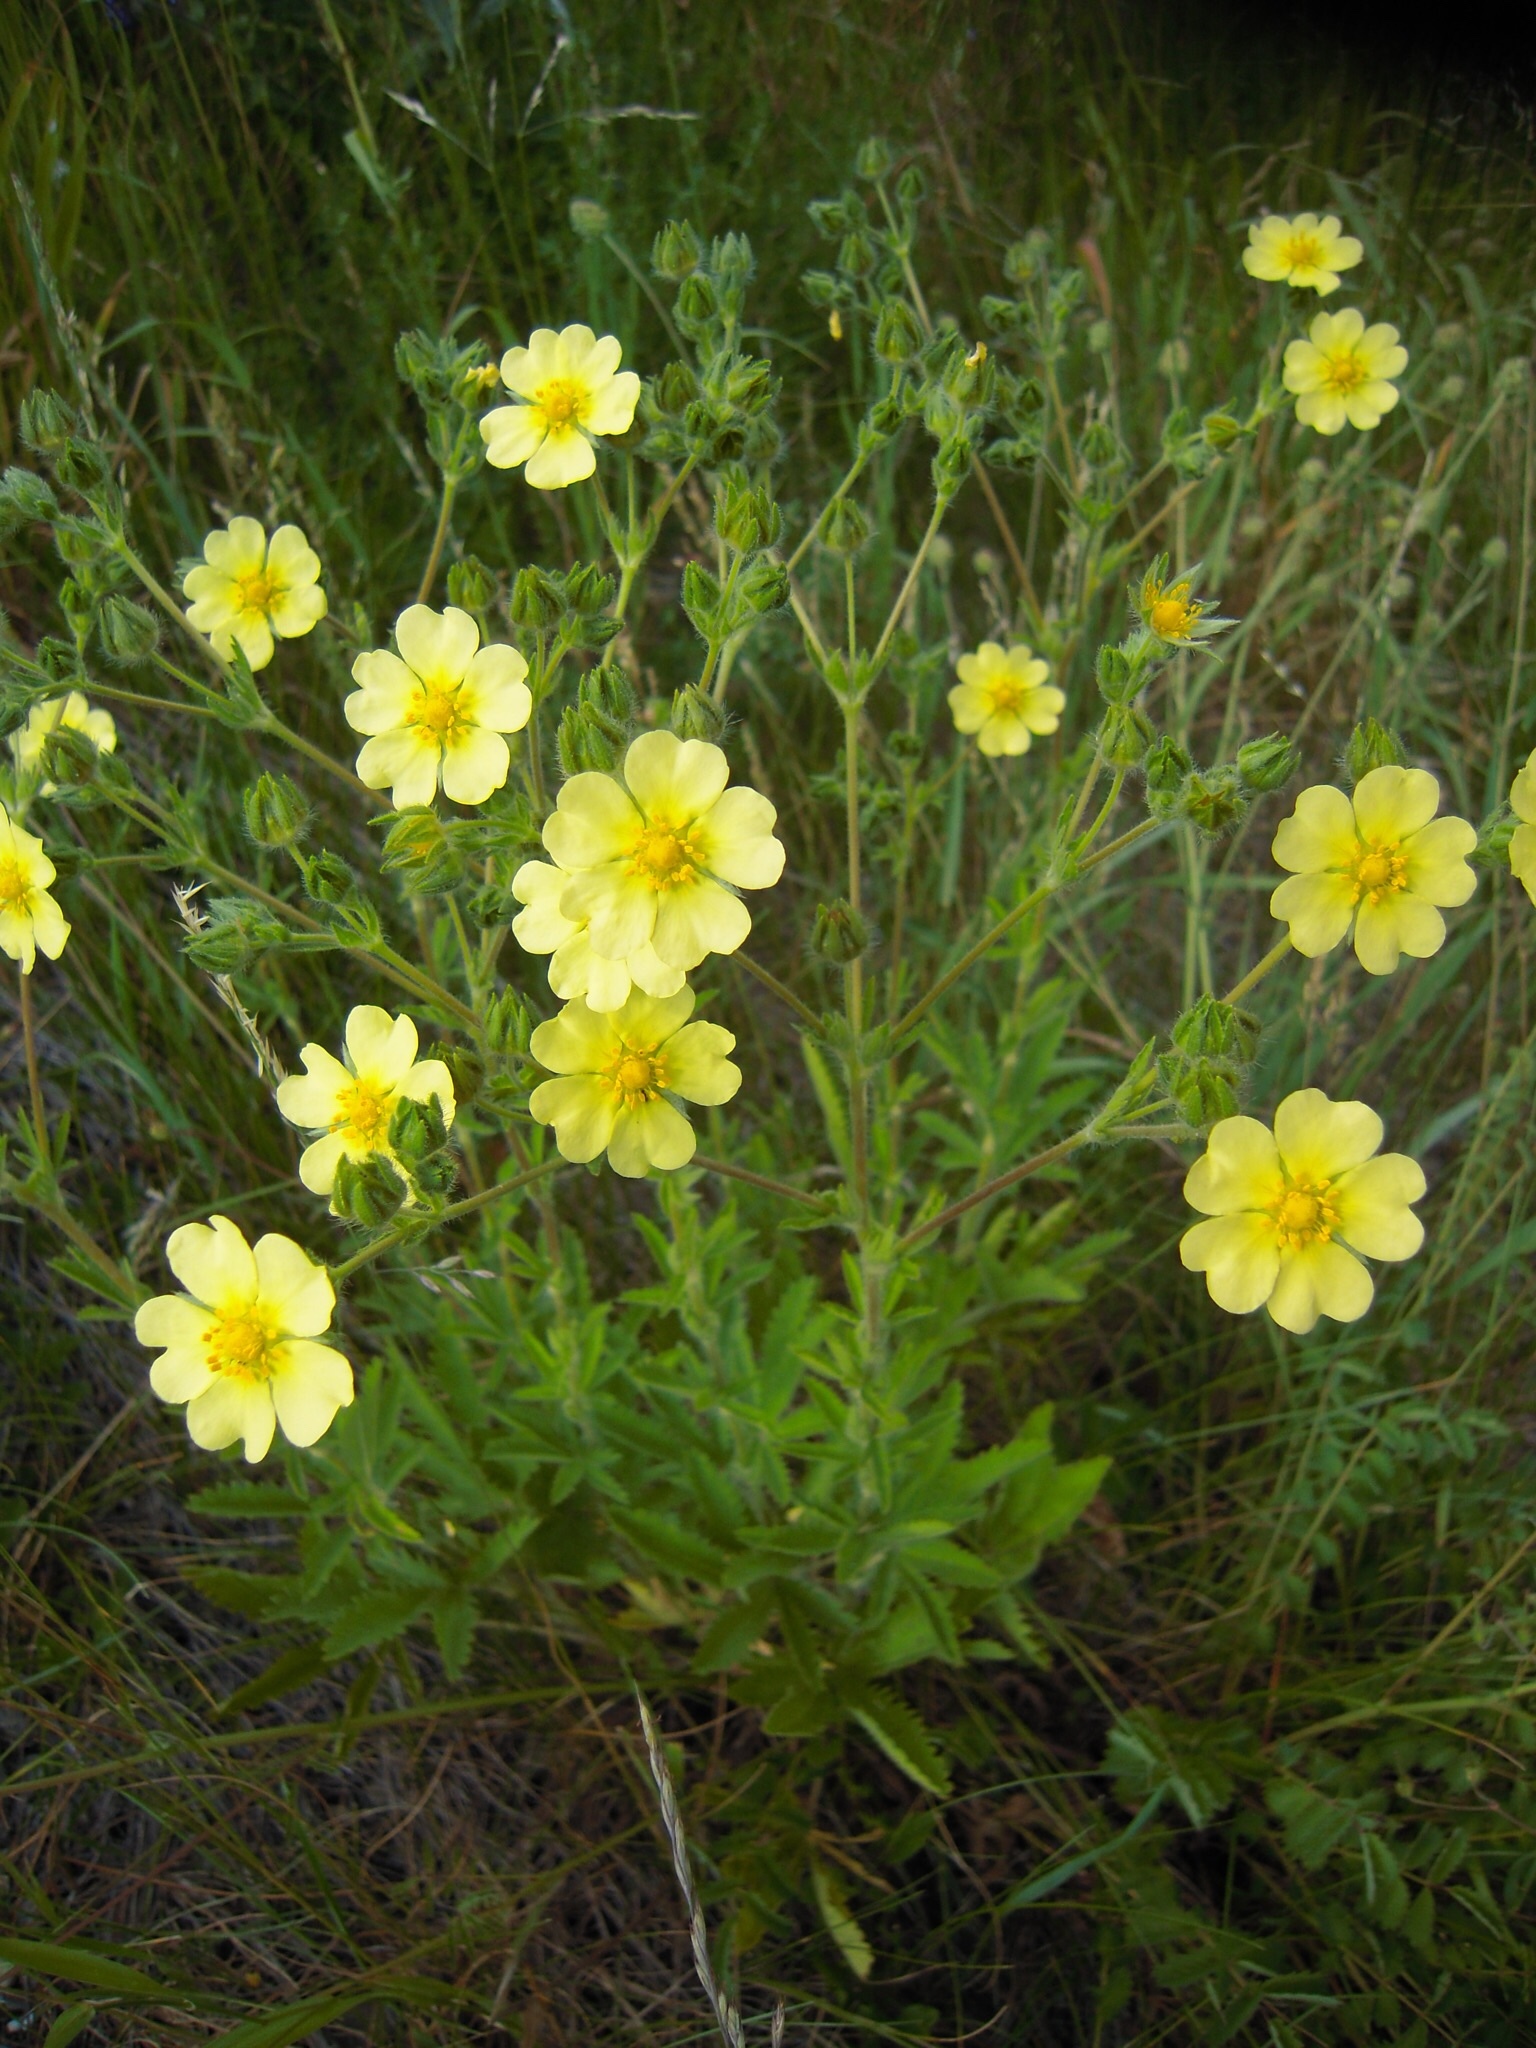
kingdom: Plantae
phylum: Tracheophyta
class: Magnoliopsida
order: Rosales
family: Rosaceae
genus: Potentilla
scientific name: Potentilla recta
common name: Sulphur cinquefoil
